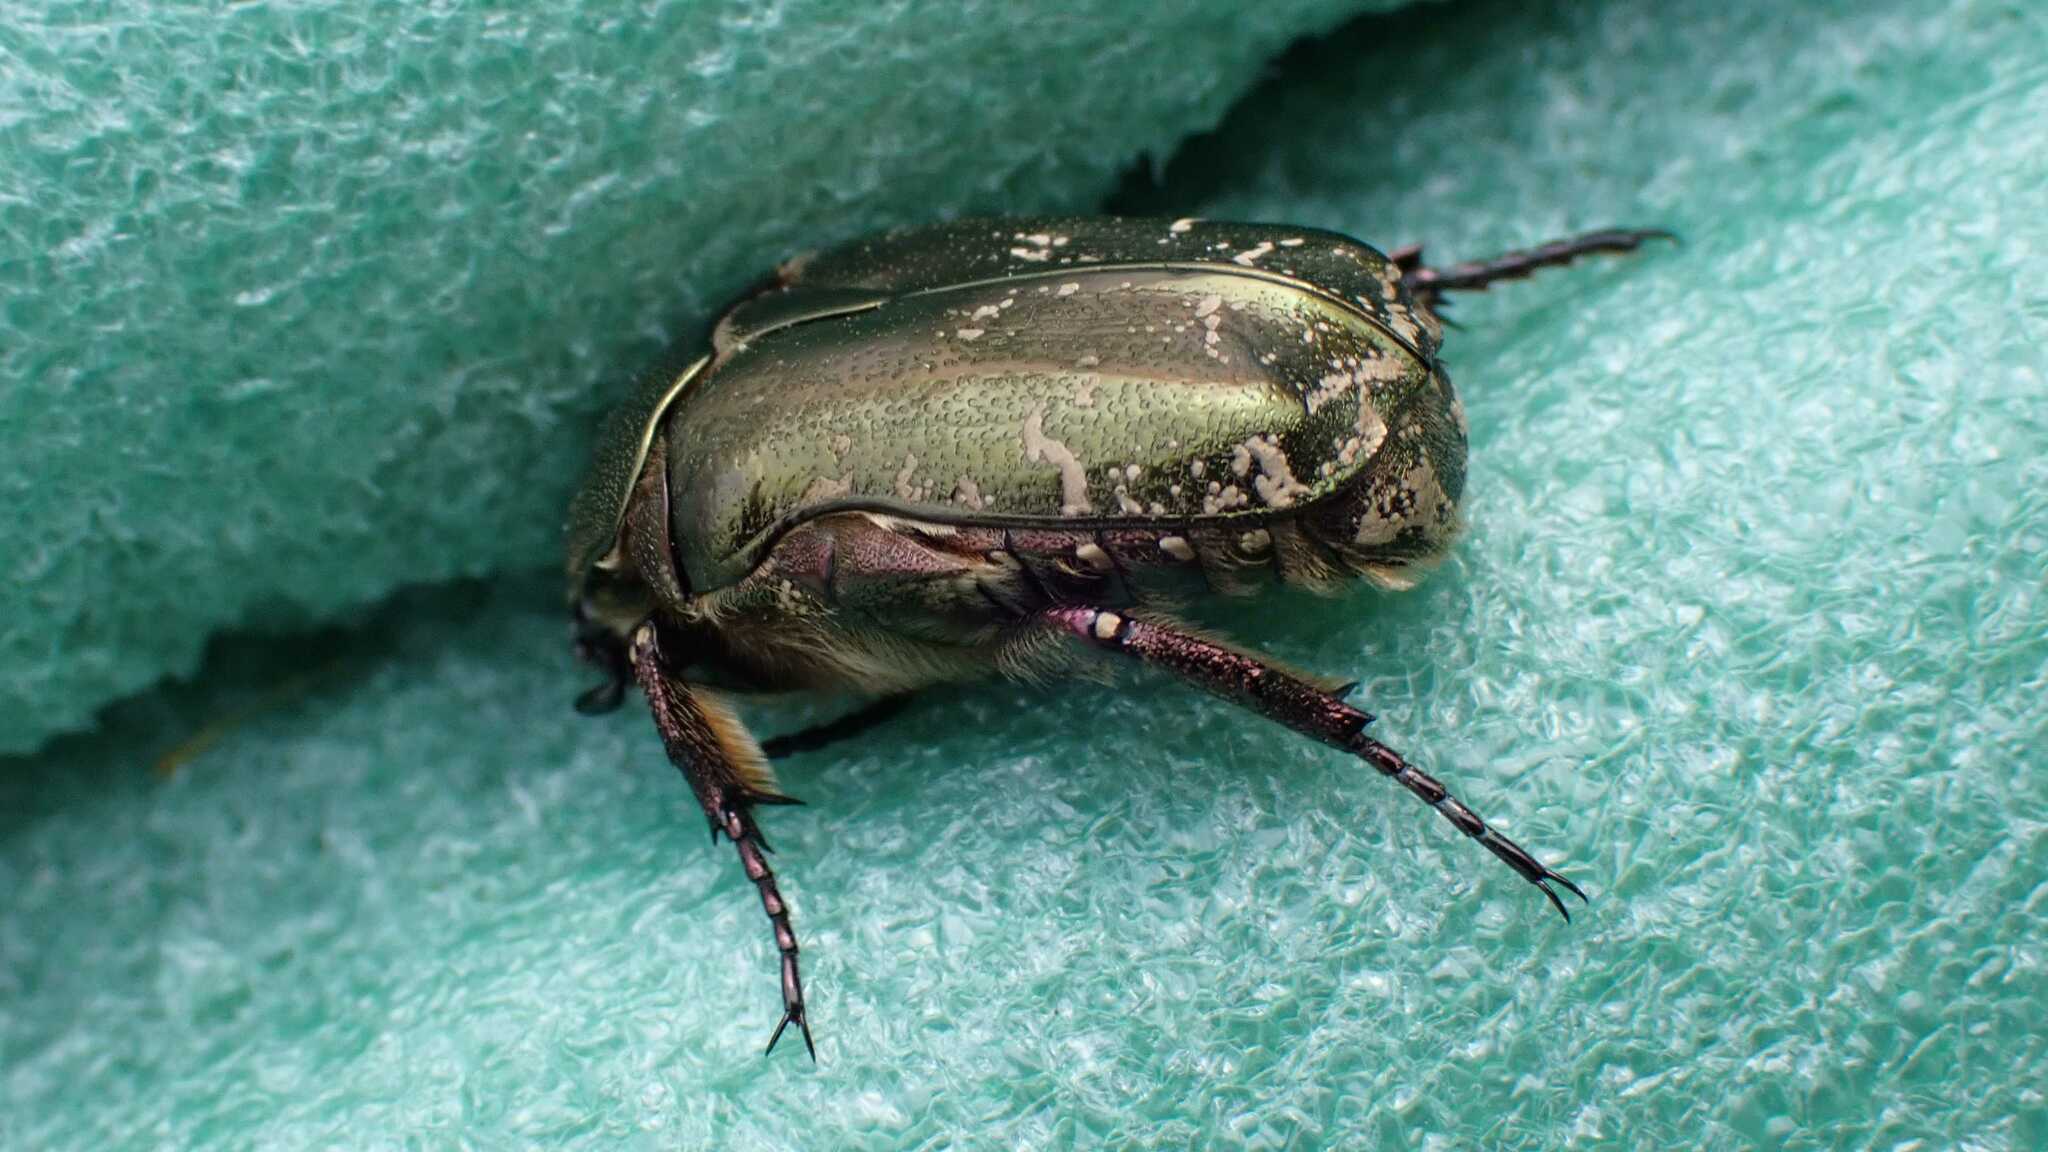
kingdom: Animalia
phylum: Arthropoda
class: Insecta
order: Coleoptera
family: Scarabaeidae
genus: Protaetia
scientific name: Protaetia cuprea
